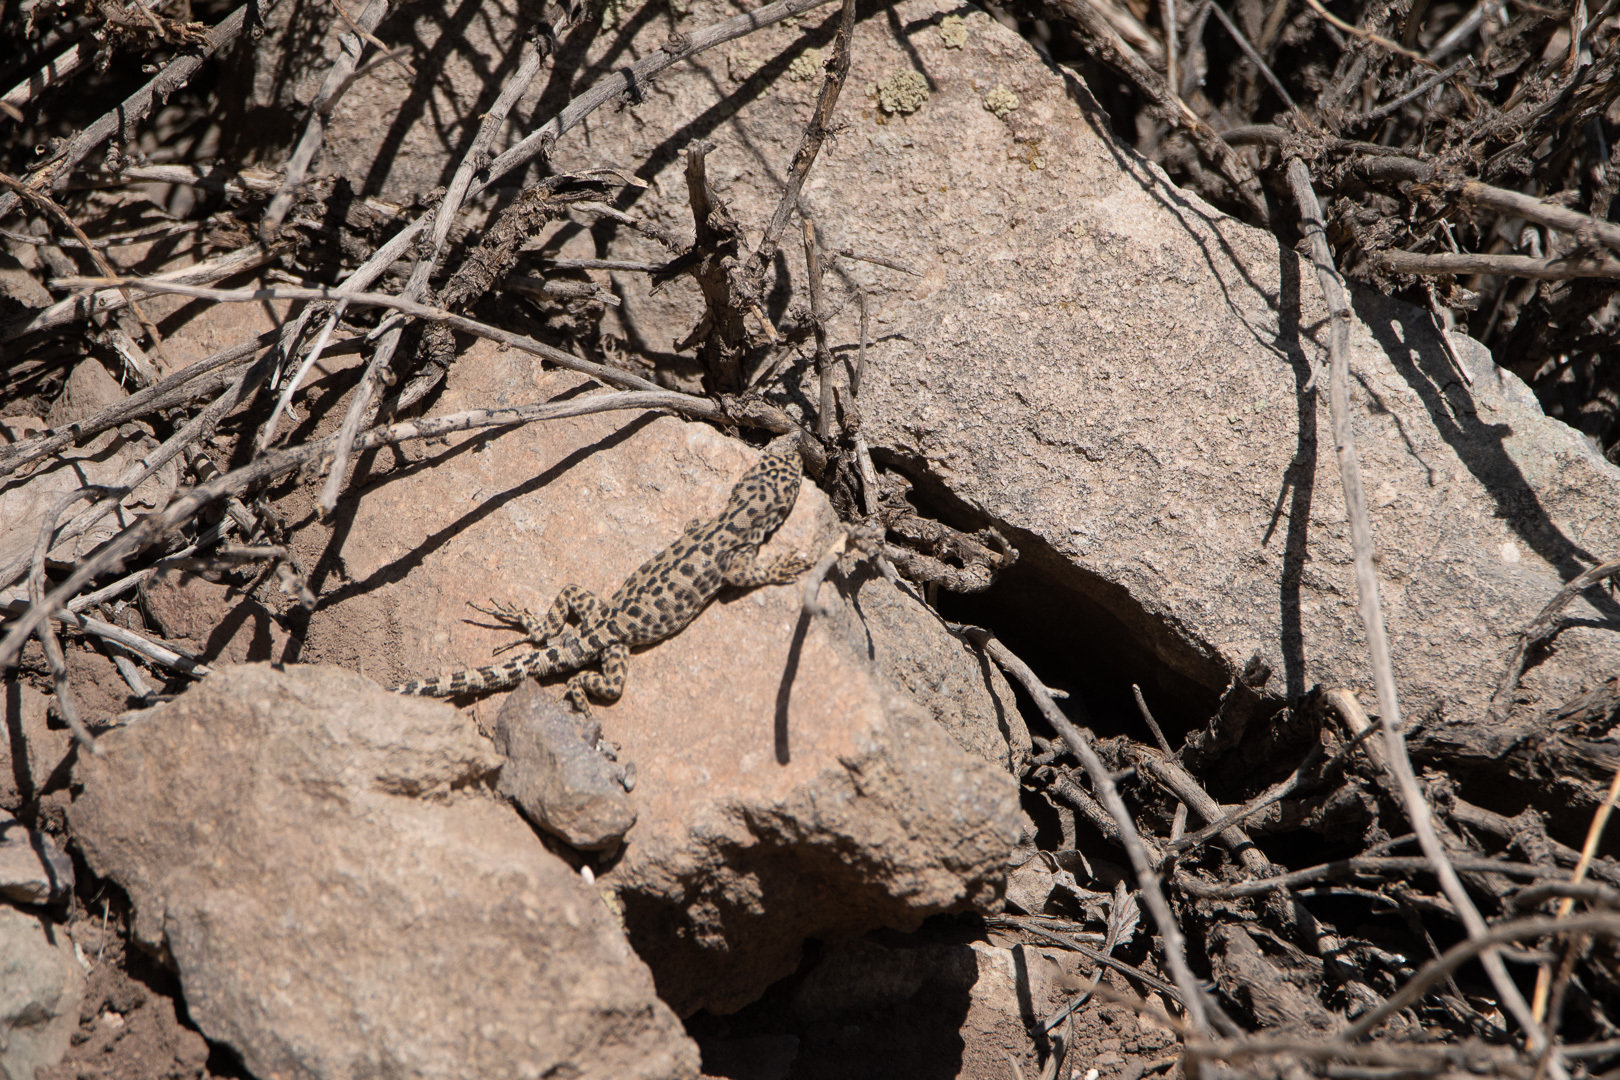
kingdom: Animalia
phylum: Chordata
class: Squamata
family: Liolaemidae
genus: Liolaemus
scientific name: Liolaemus leopardinus
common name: Leopard tree iguana
